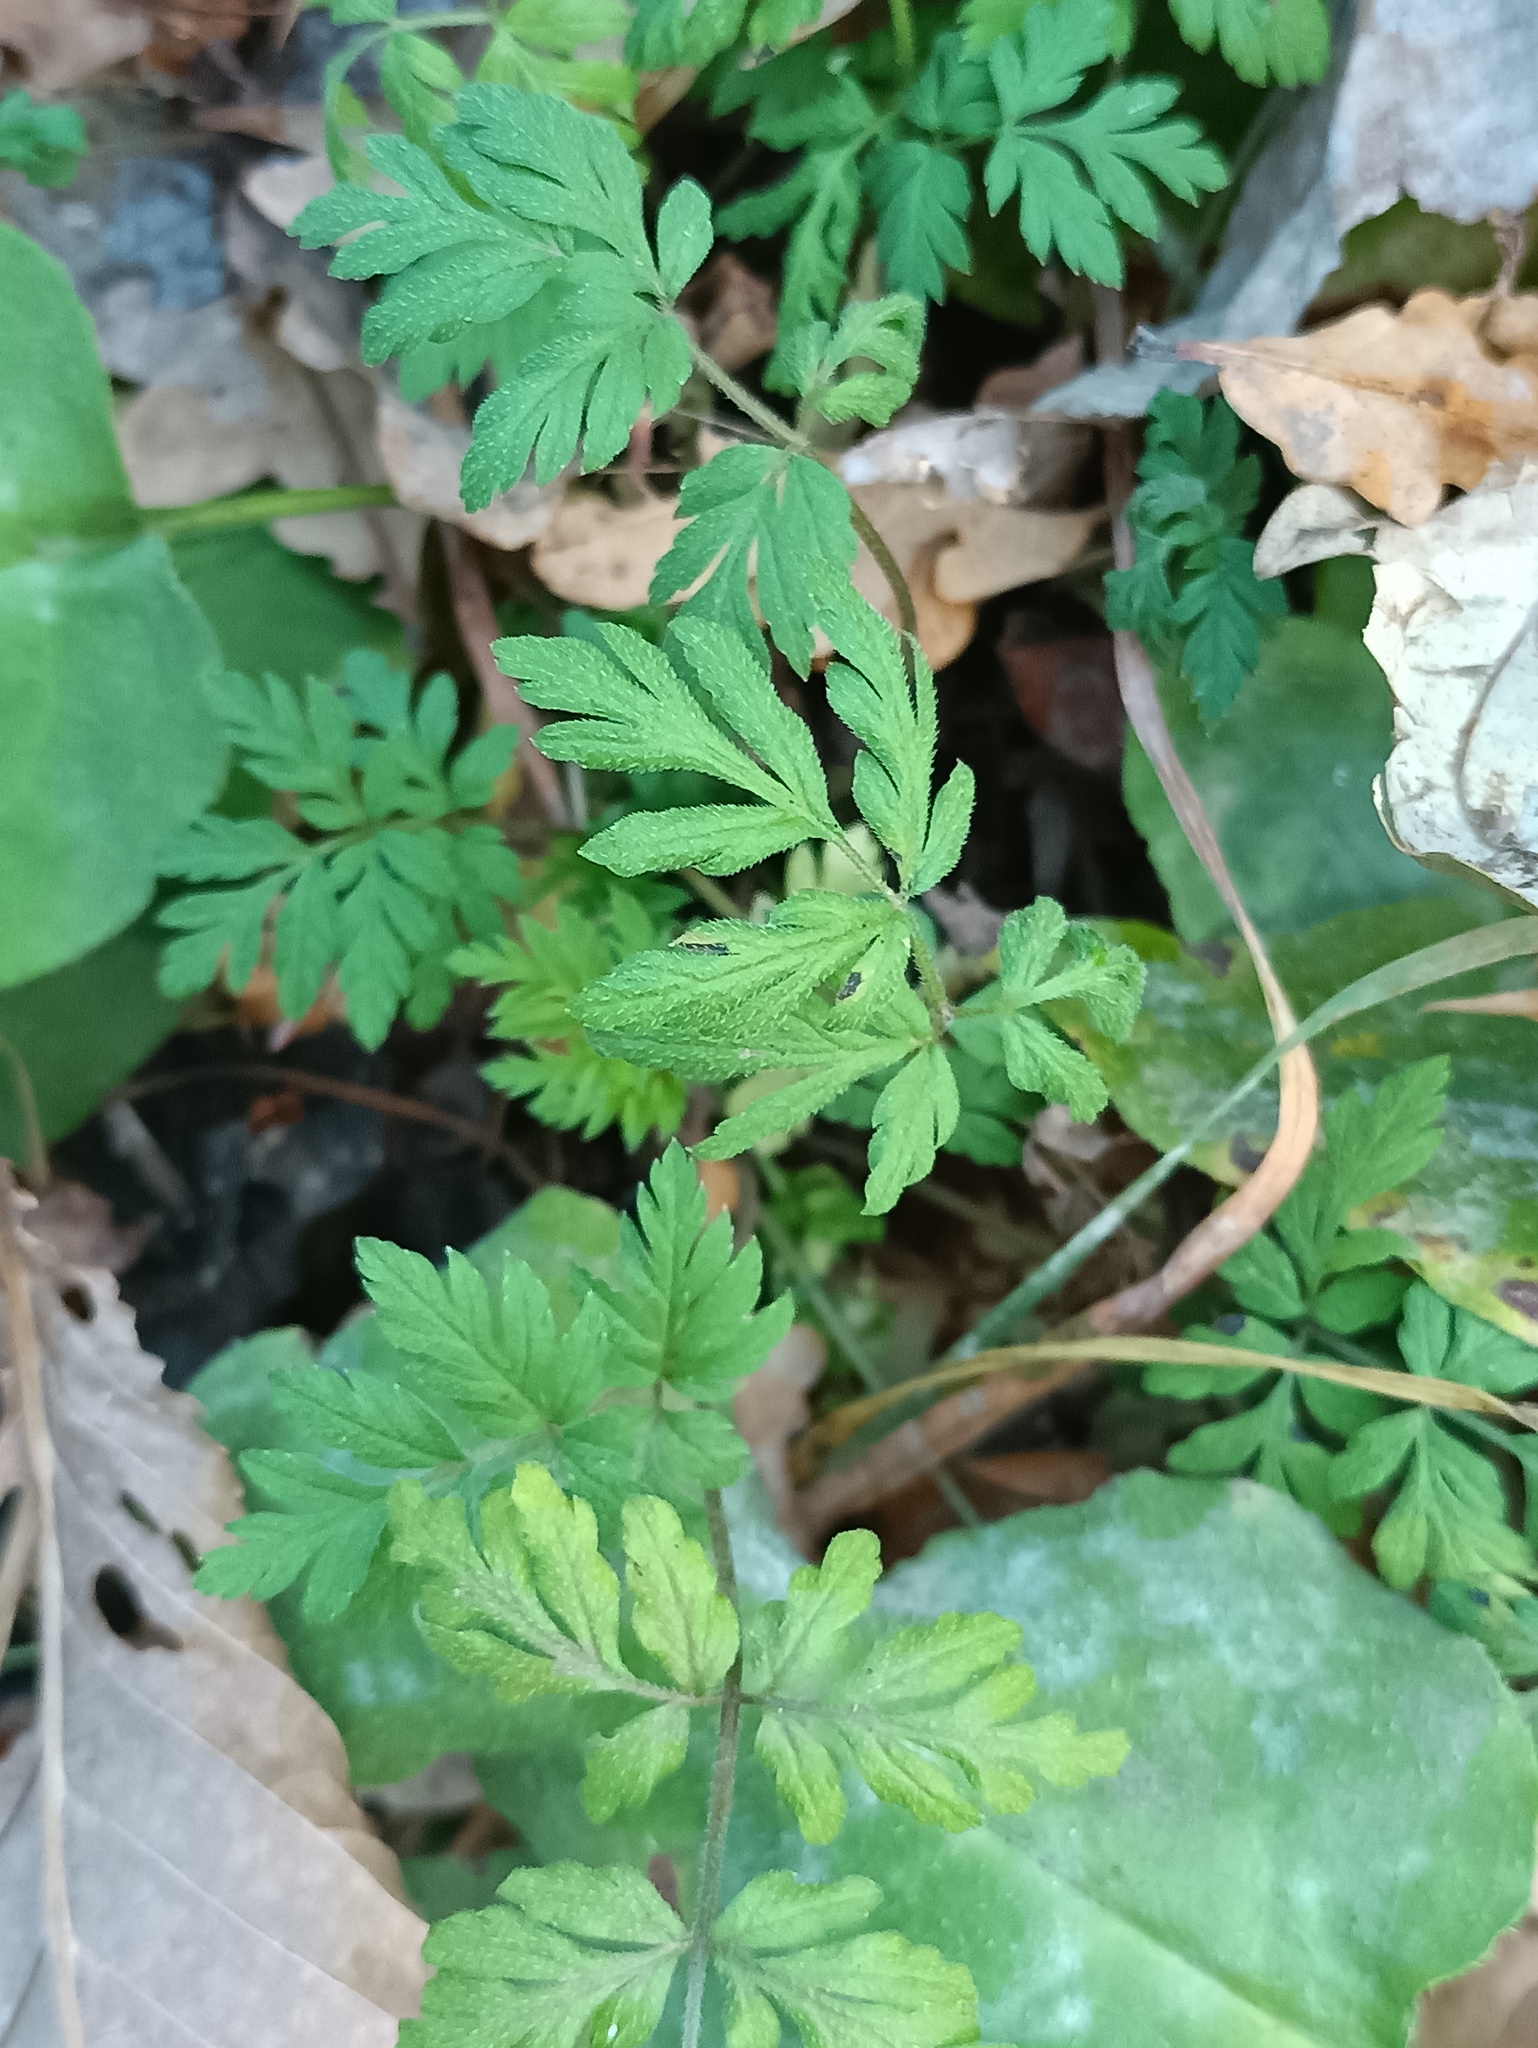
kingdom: Plantae
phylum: Tracheophyta
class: Magnoliopsida
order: Apiales
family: Apiaceae
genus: Torilis
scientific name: Torilis japonica
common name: Upright hedge-parsley
